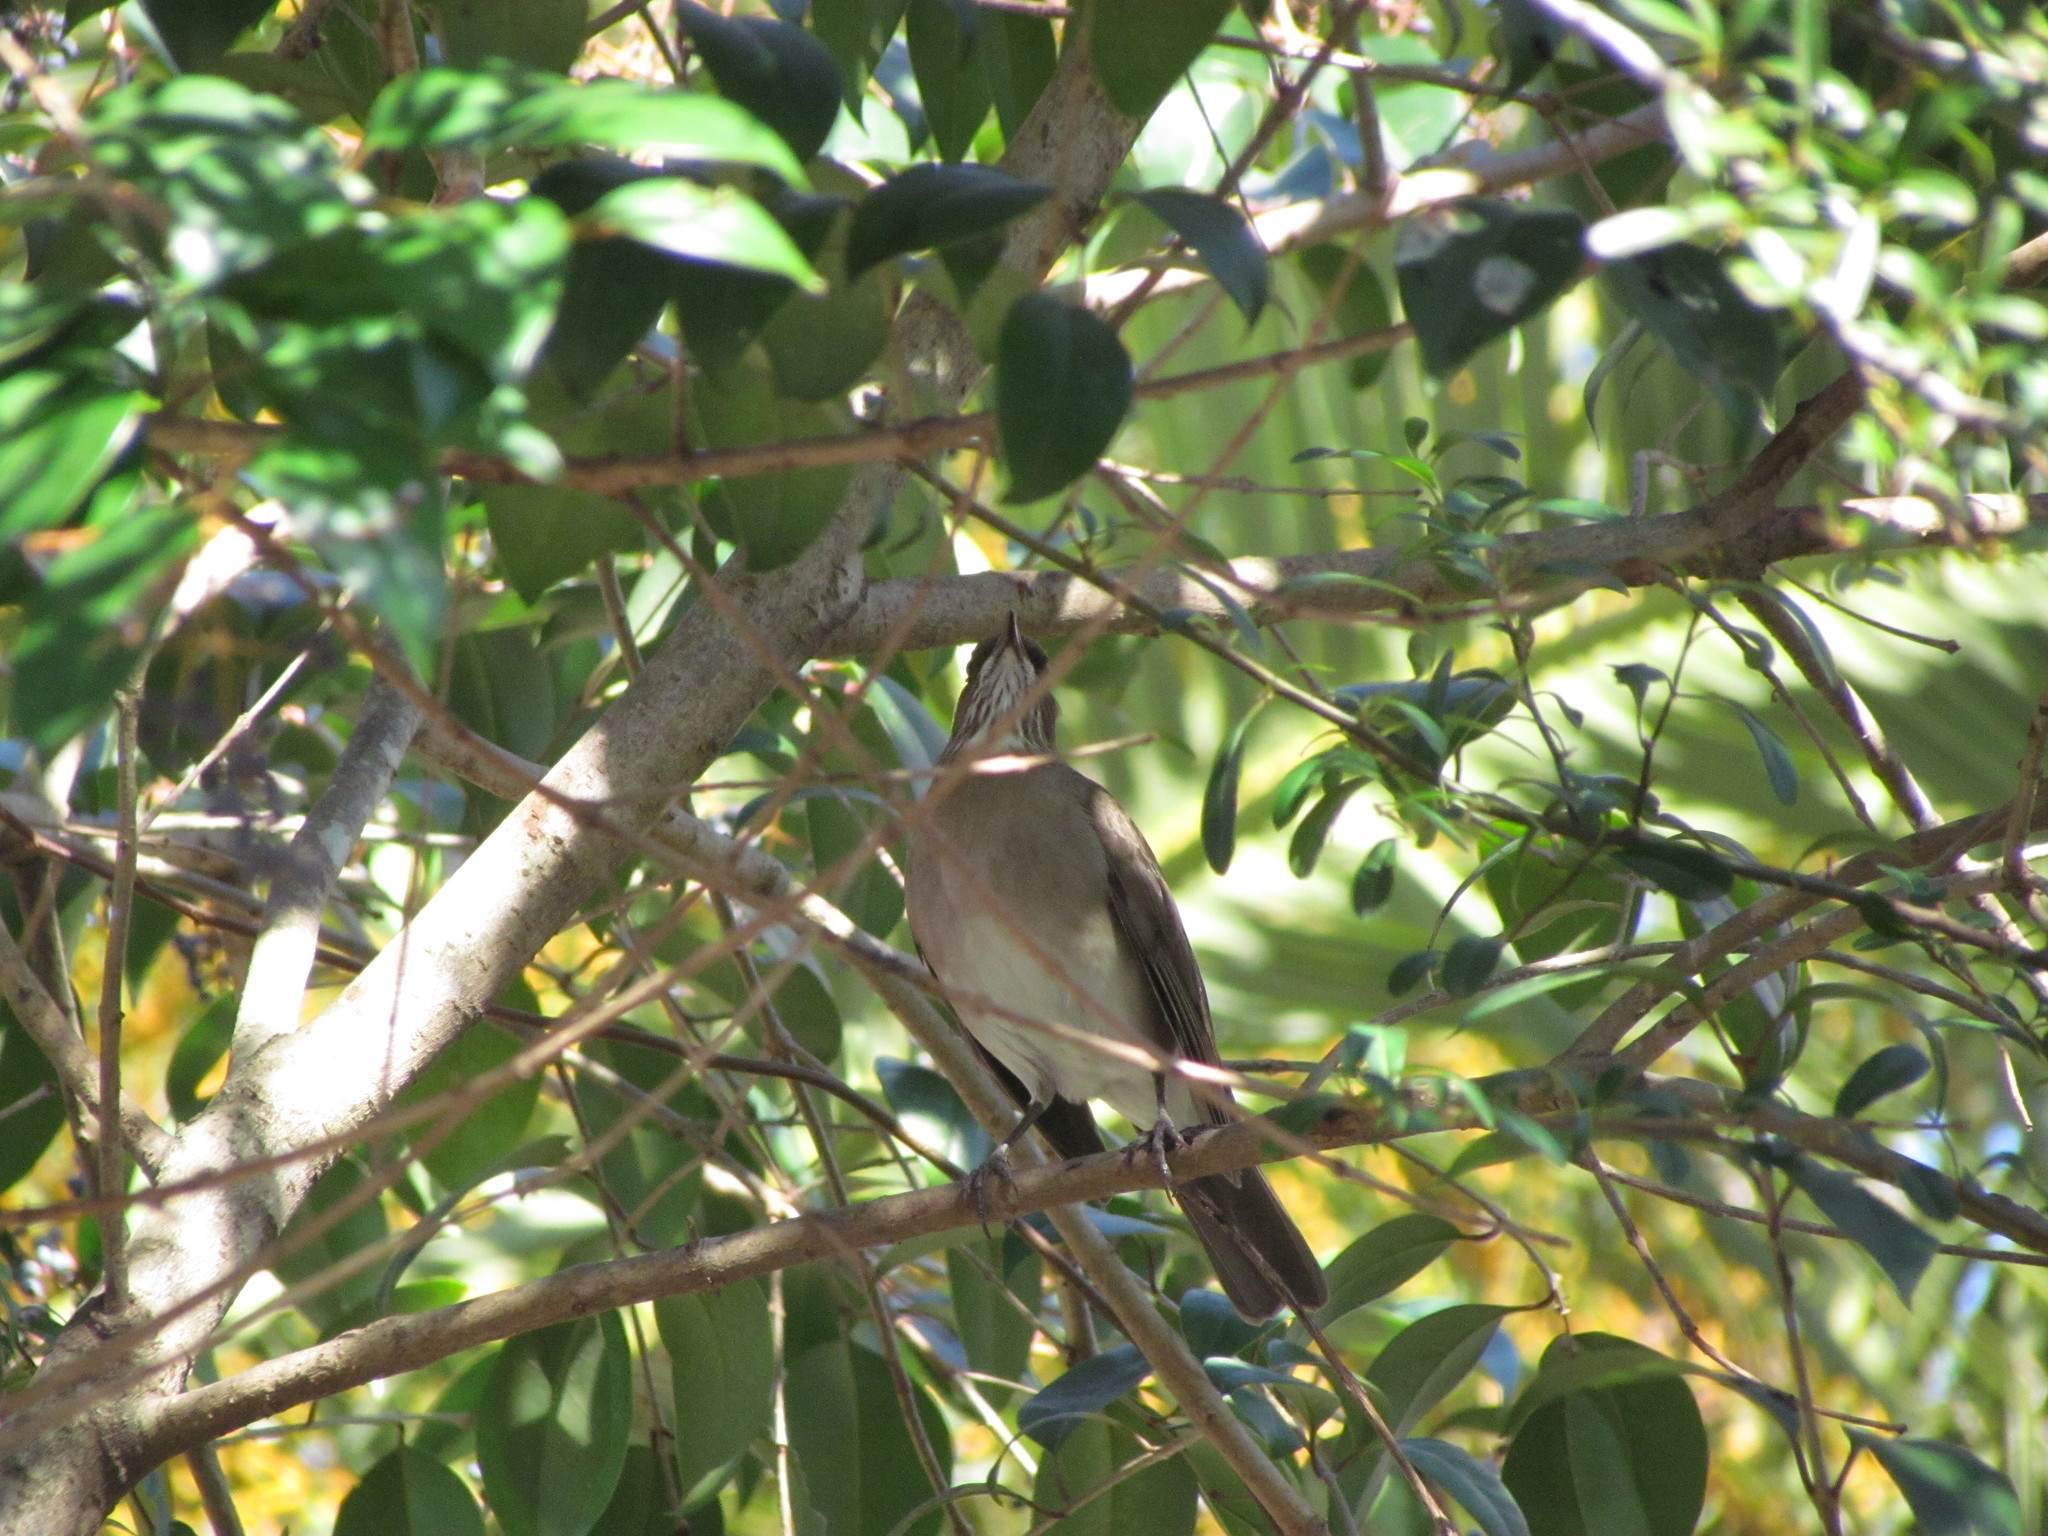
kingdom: Animalia
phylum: Chordata
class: Aves
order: Passeriformes
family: Turdidae
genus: Turdus
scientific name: Turdus amaurochalinus
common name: Creamy-bellied thrush
